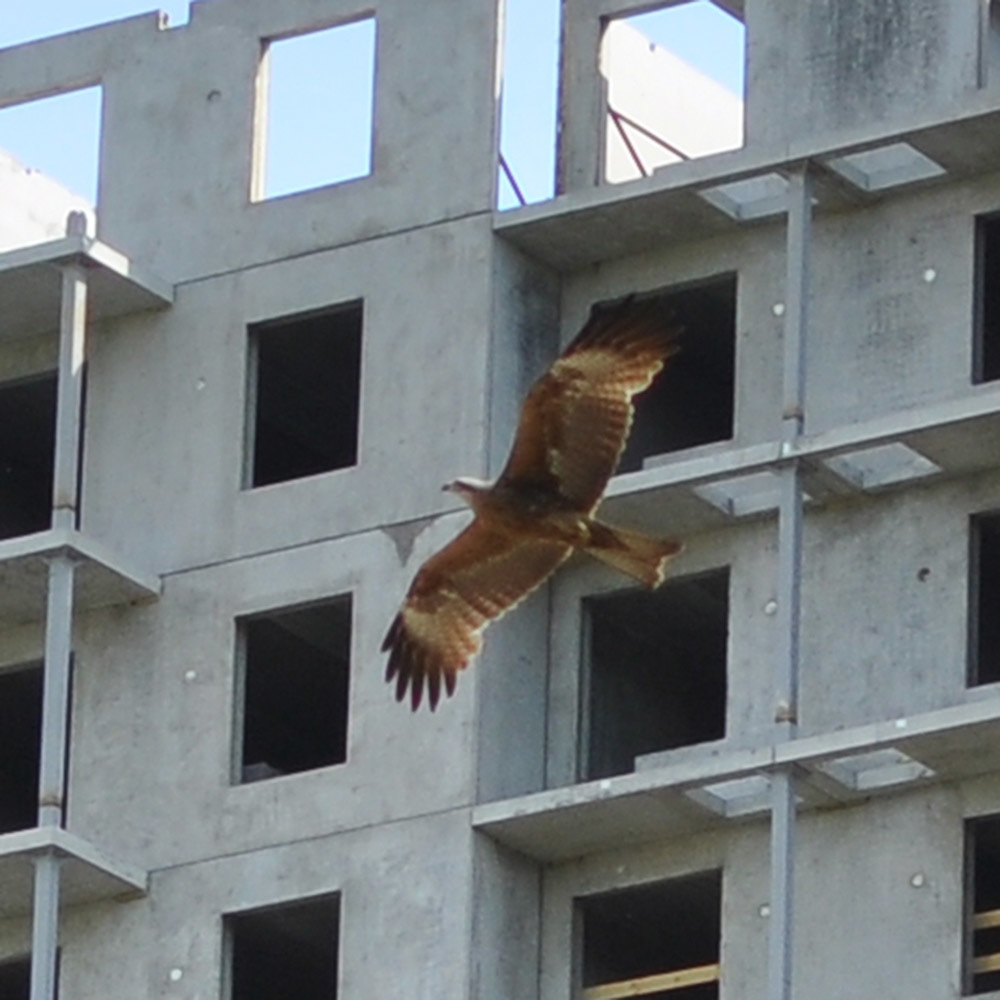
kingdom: Animalia
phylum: Chordata
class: Aves
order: Accipitriformes
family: Accipitridae
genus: Milvus
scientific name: Milvus migrans
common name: Black kite
